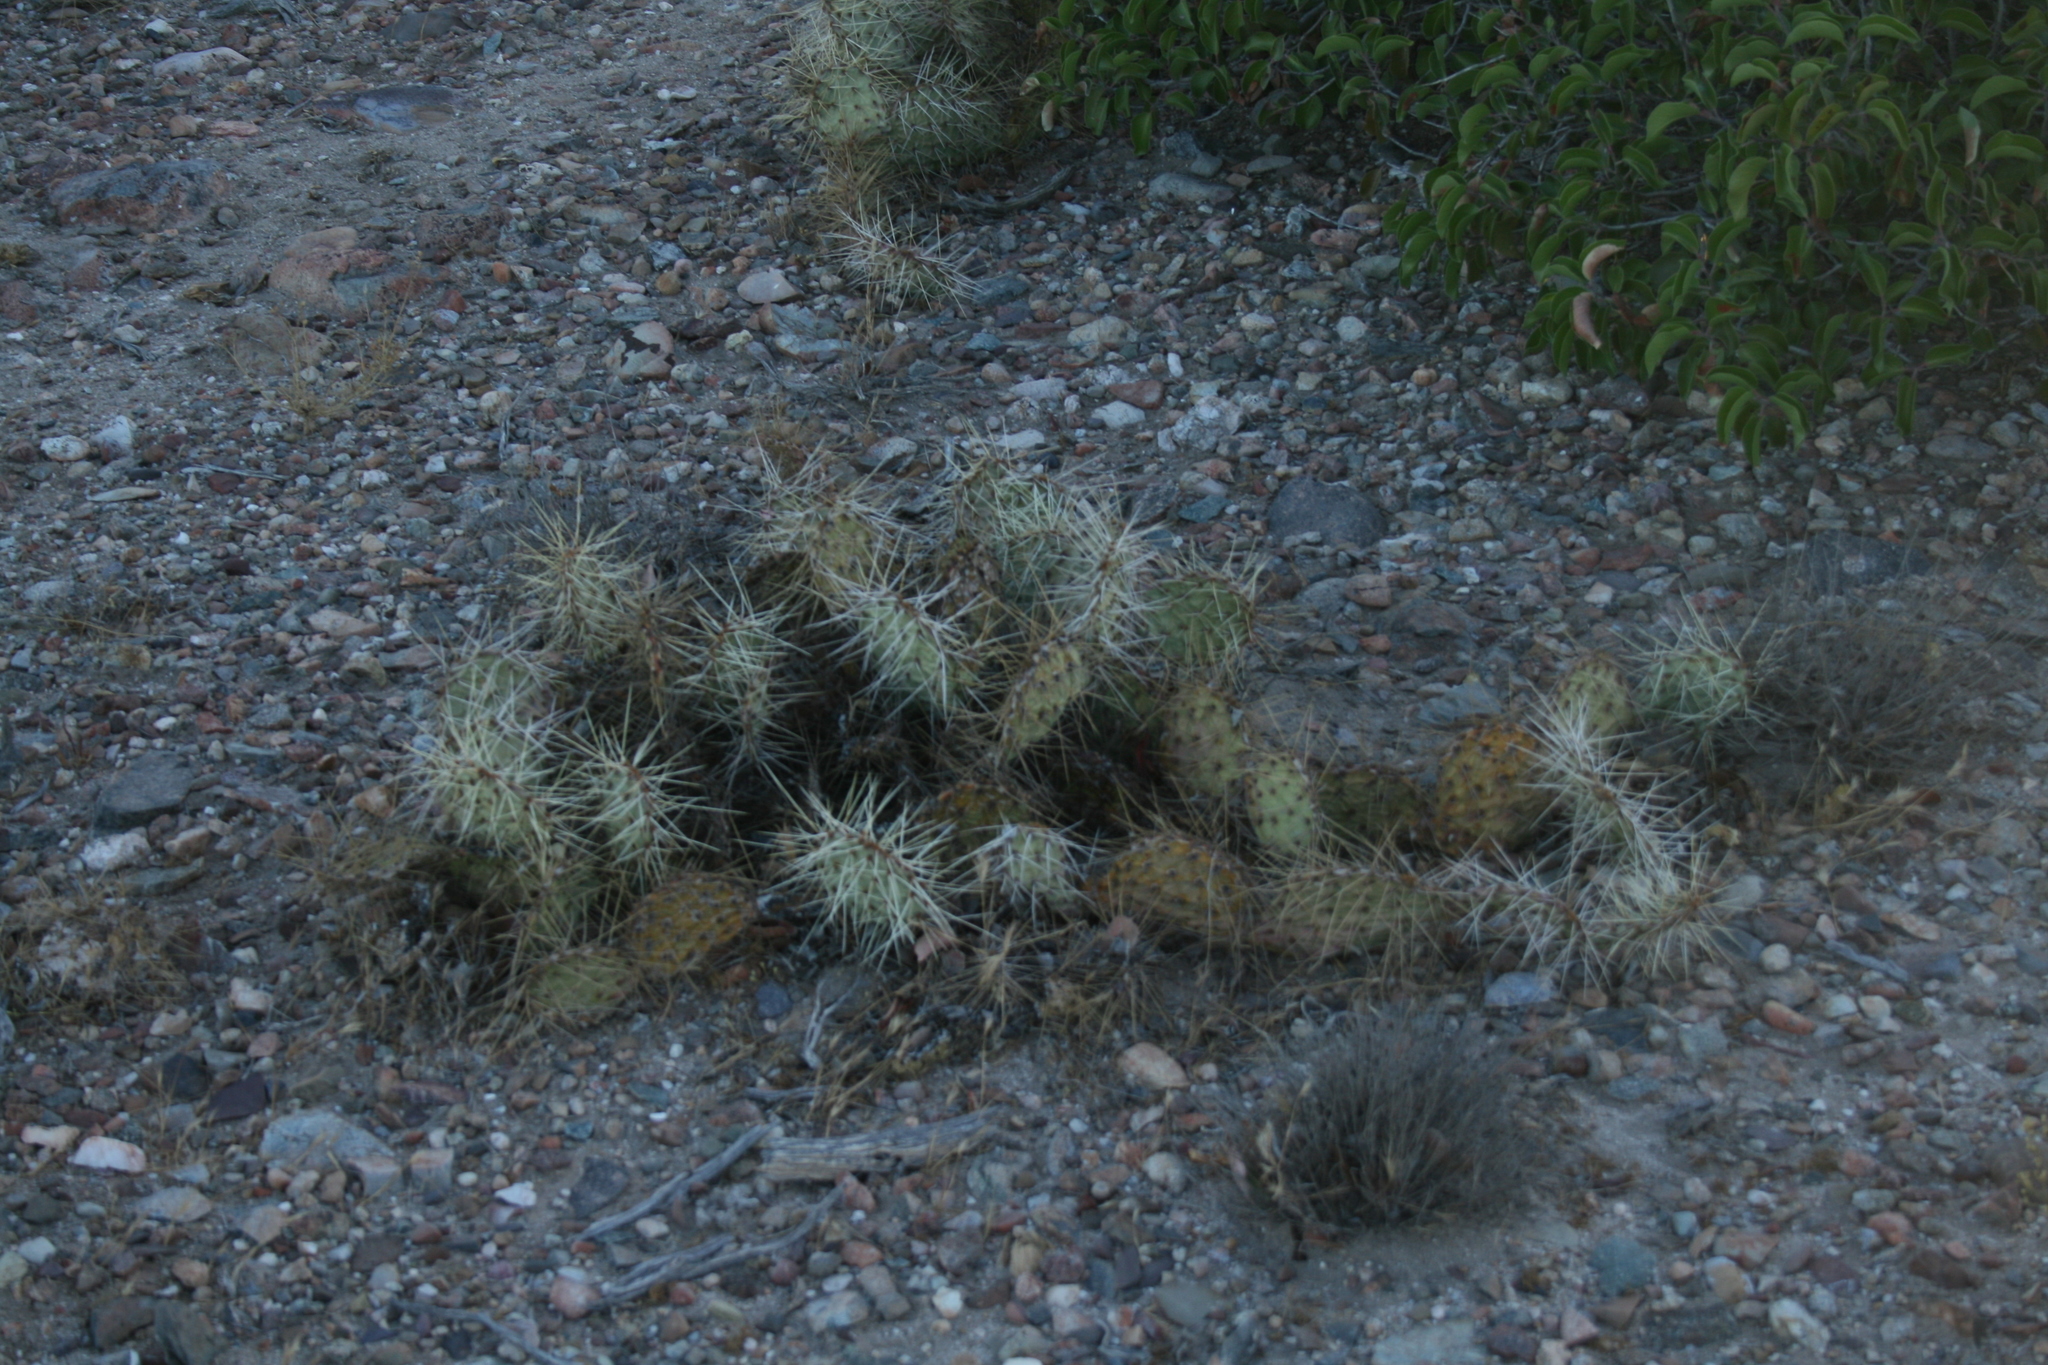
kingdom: Plantae
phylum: Tracheophyta
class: Magnoliopsida
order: Caryophyllales
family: Cactaceae
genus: Opuntia
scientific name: Opuntia phaeacantha
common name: New mexico prickly-pear
